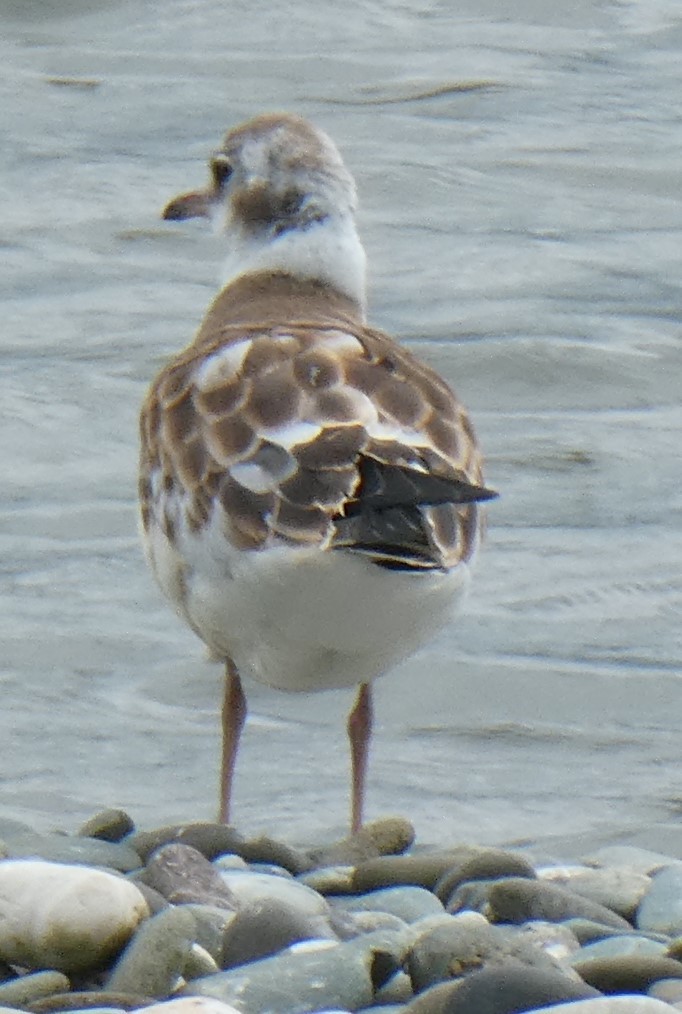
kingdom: Animalia
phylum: Chordata
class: Aves
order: Charadriiformes
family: Laridae
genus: Chroicocephalus
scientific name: Chroicocephalus ridibundus
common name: Black-headed gull
